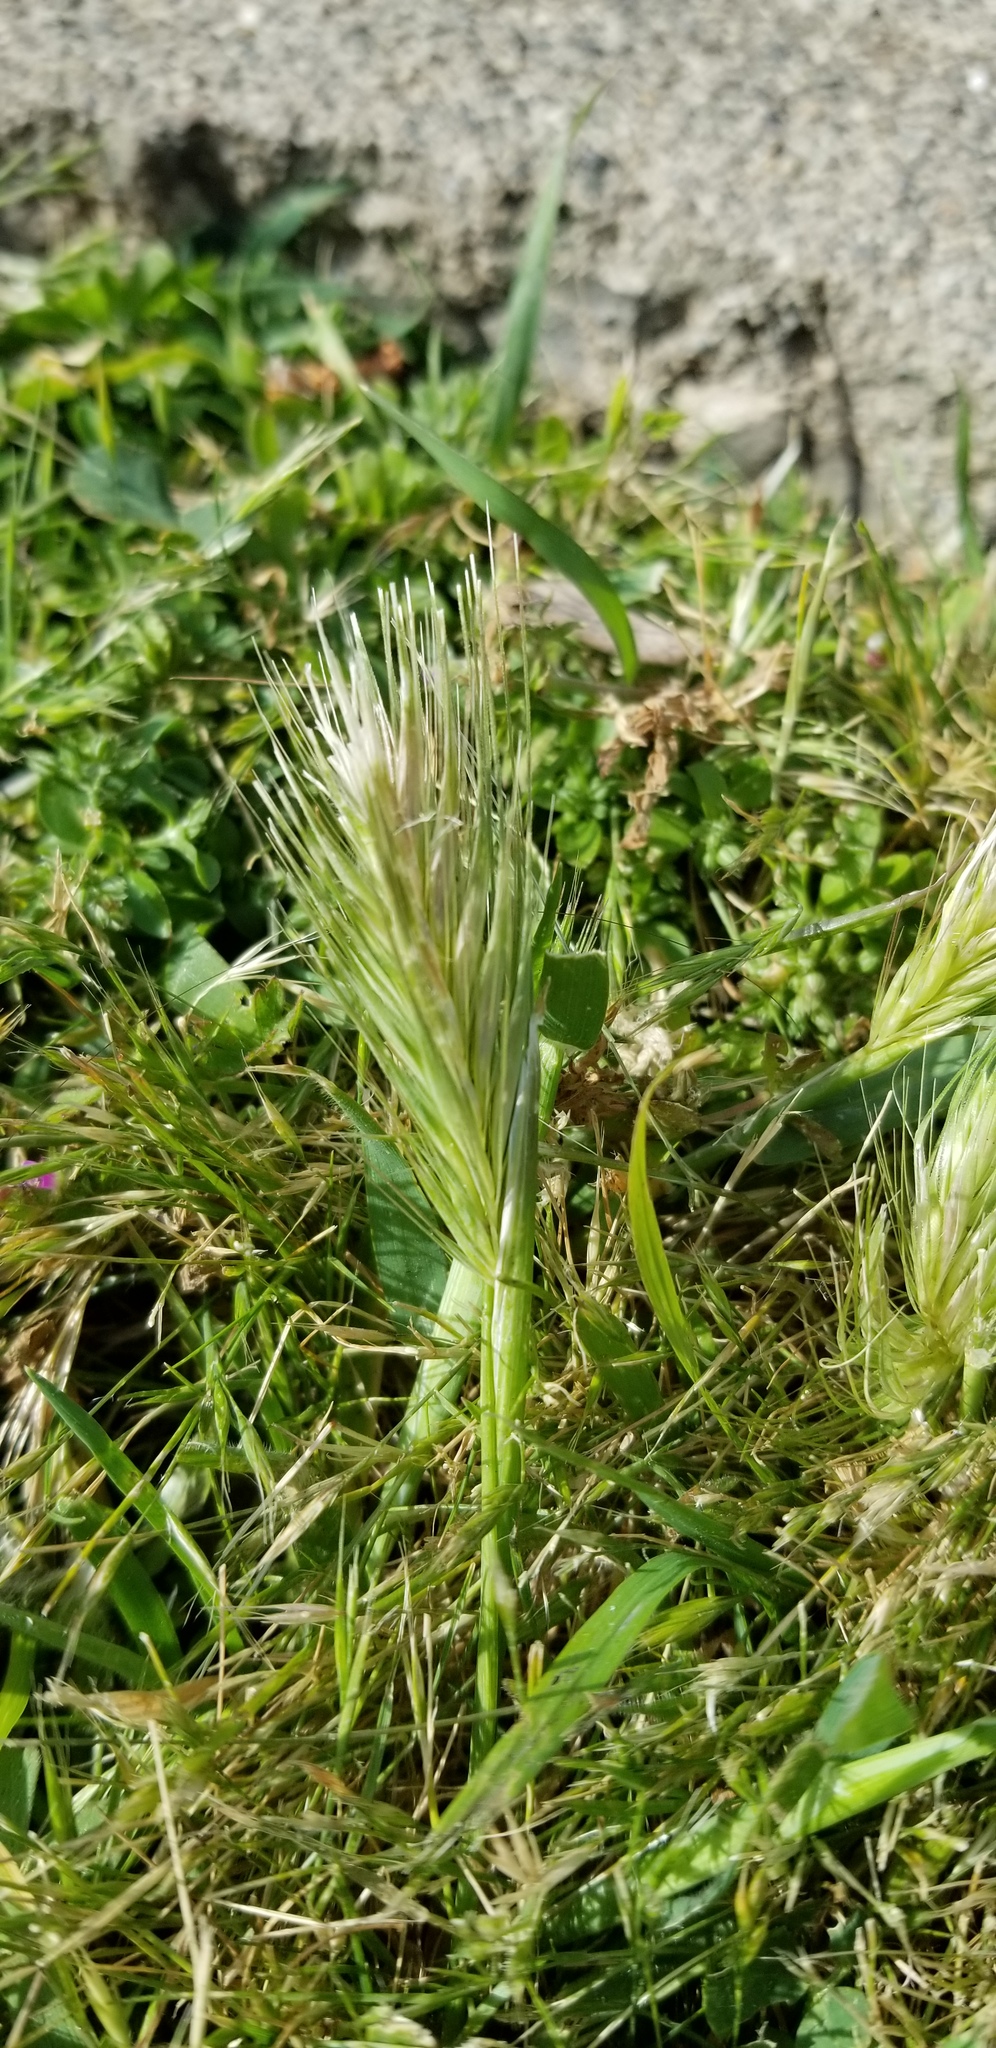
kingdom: Plantae
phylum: Tracheophyta
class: Liliopsida
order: Poales
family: Poaceae
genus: Hordeum
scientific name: Hordeum murinum
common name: Wall barley
